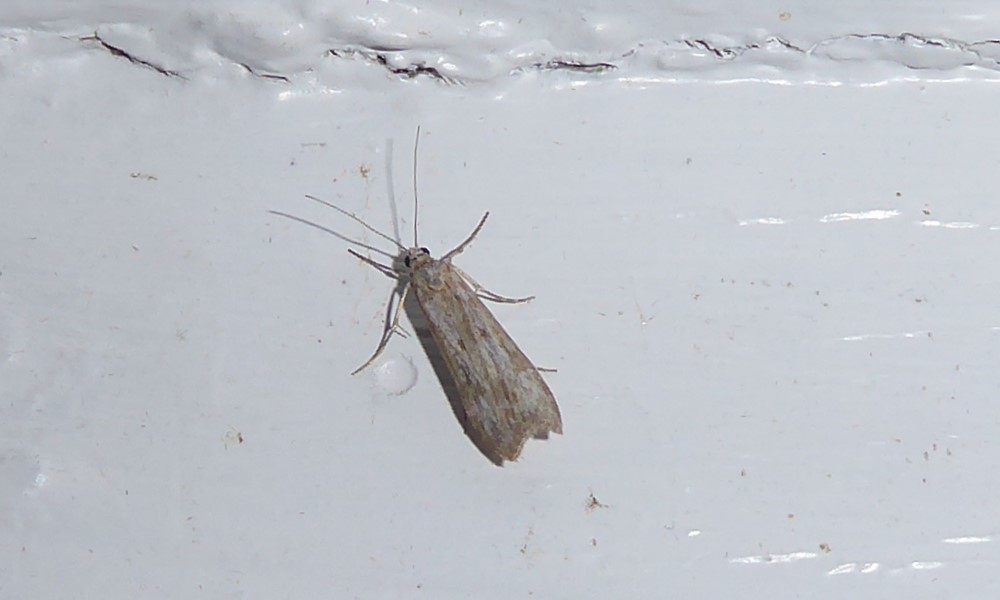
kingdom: Animalia
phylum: Arthropoda
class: Insecta
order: Lepidoptera
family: Crambidae
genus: Eudonia
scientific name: Eudonia leptalea
